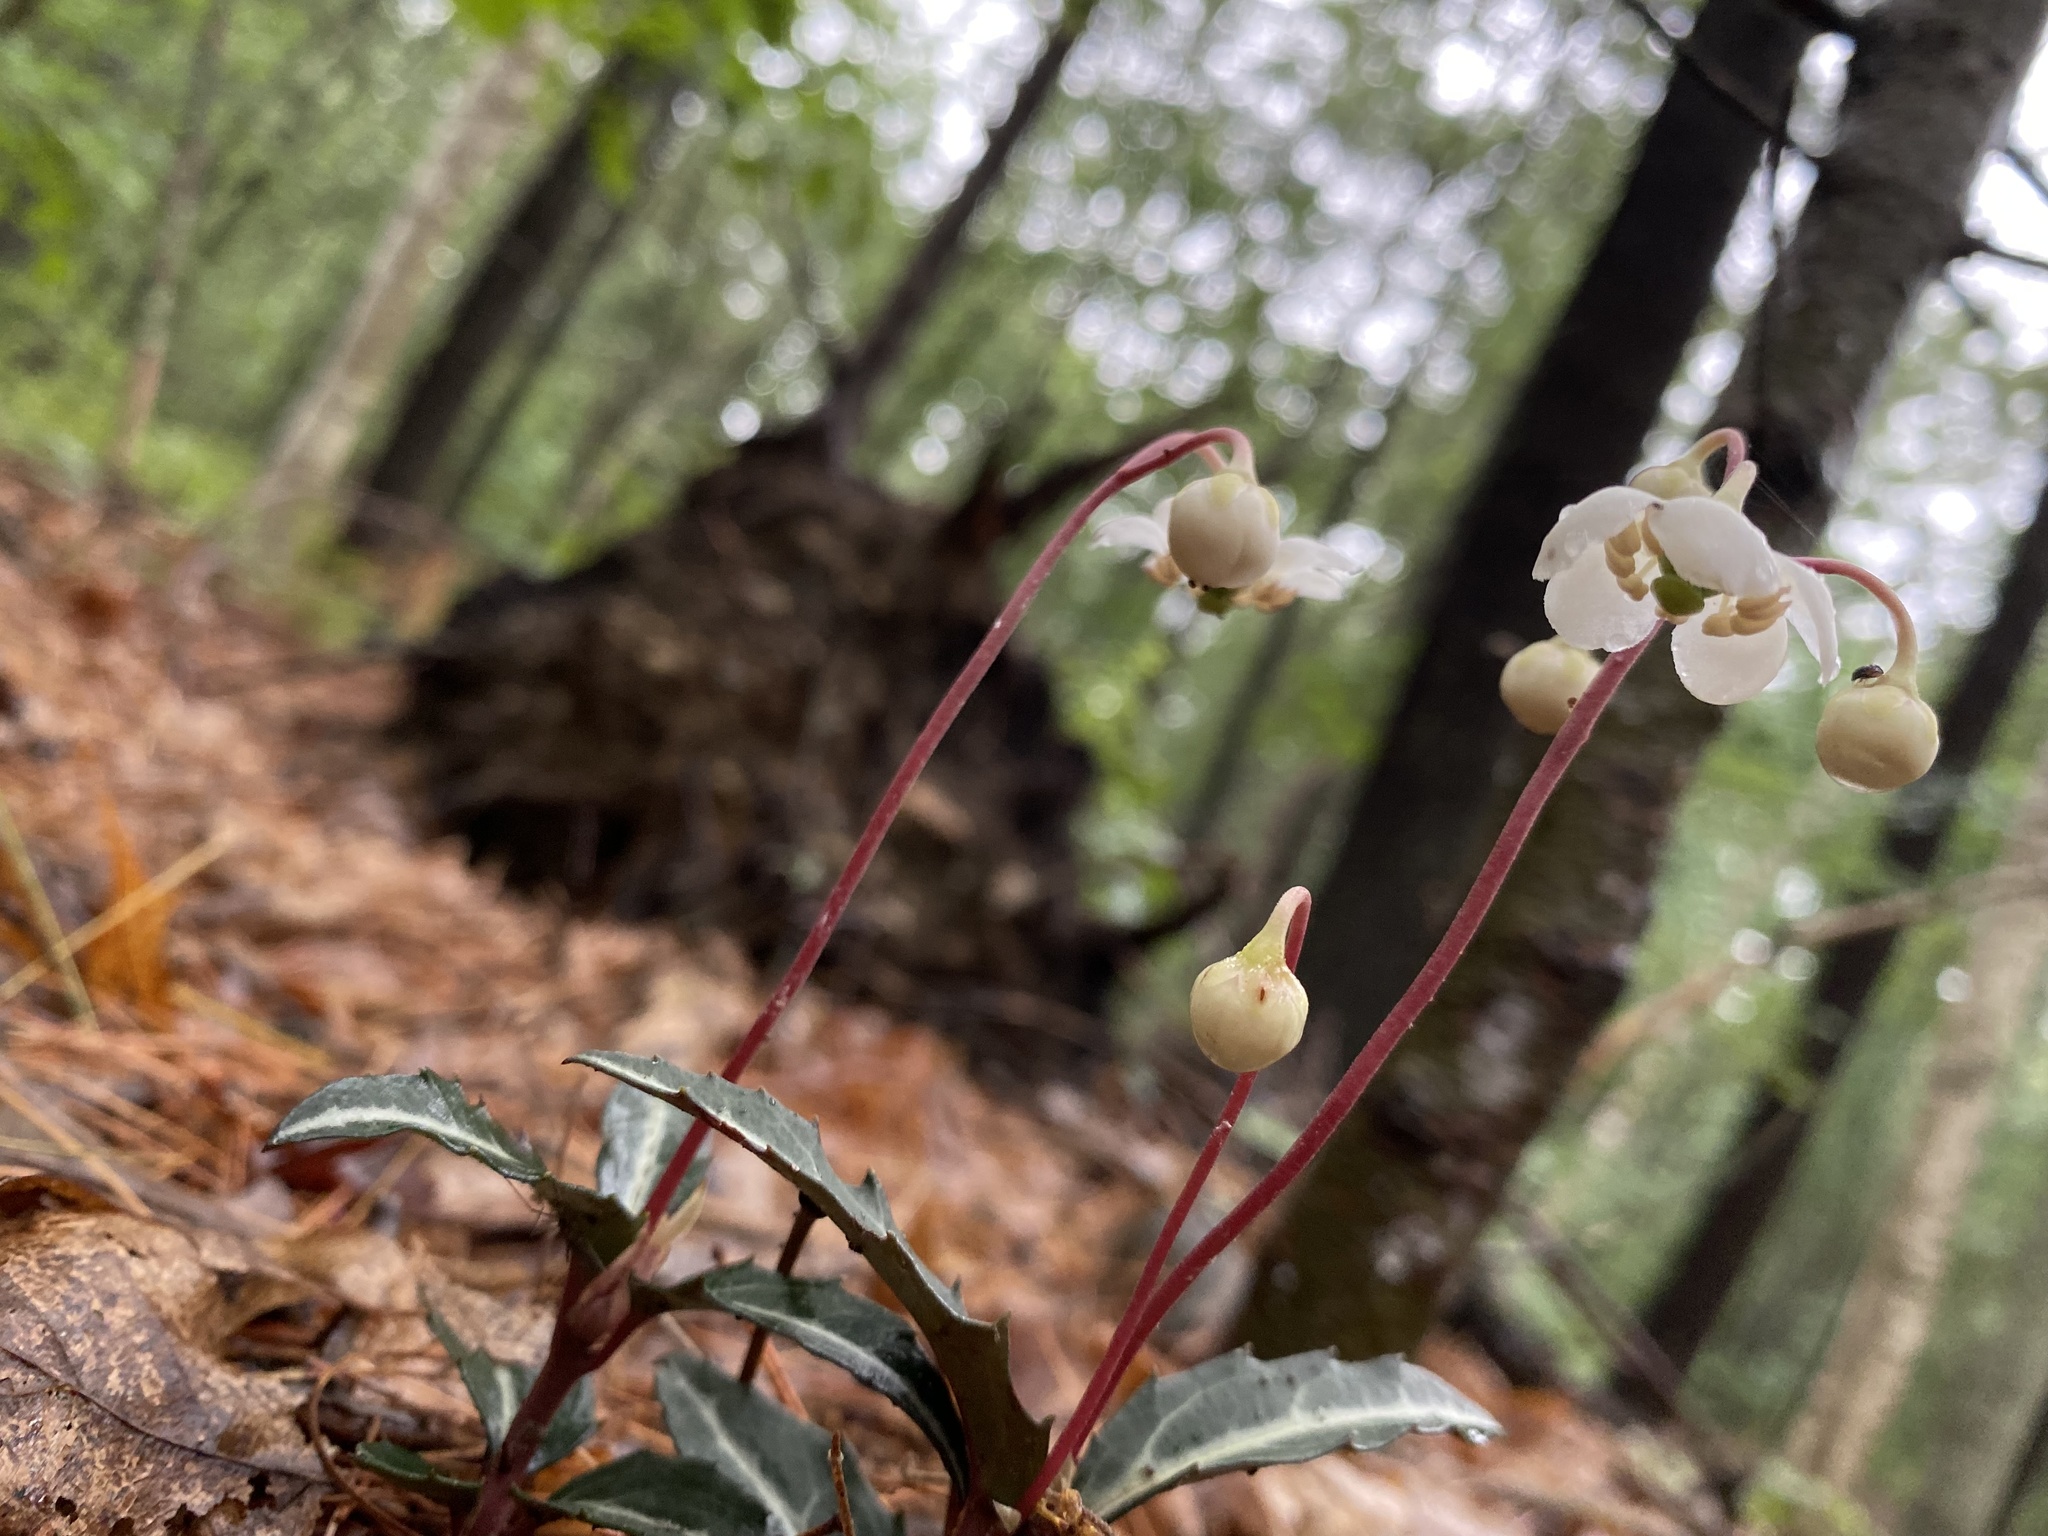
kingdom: Plantae
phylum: Tracheophyta
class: Magnoliopsida
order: Ericales
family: Ericaceae
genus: Chimaphila
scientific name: Chimaphila maculata
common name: Spotted pipsissewa
